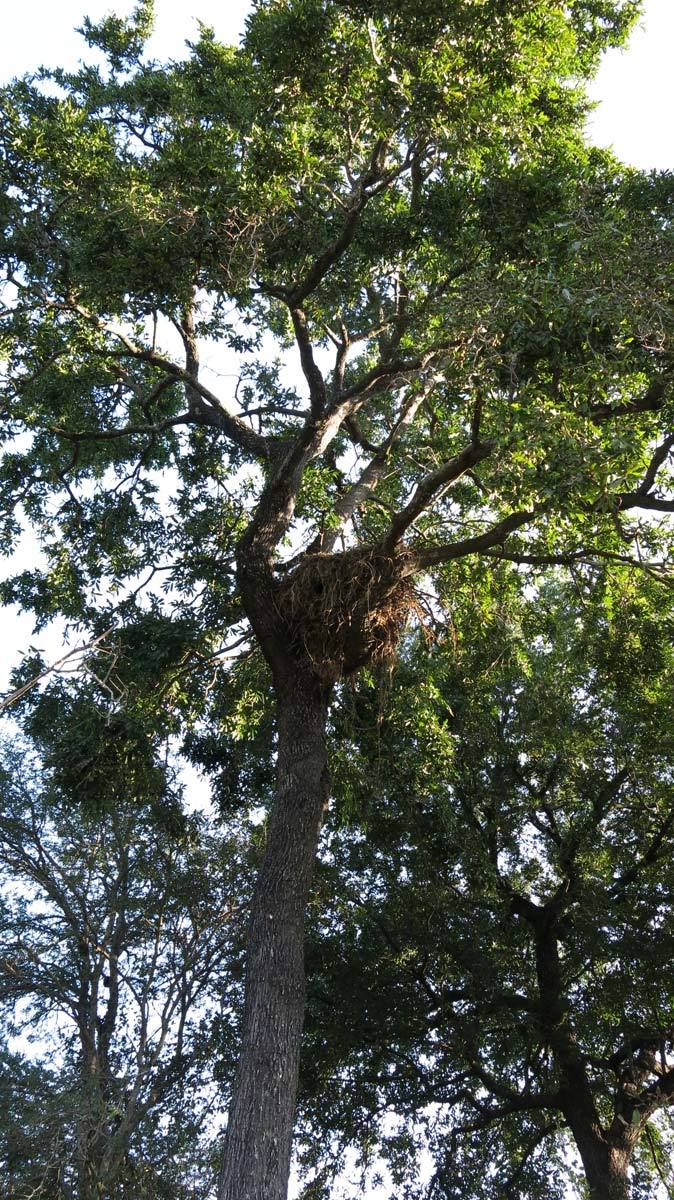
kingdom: Plantae
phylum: Tracheophyta
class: Magnoliopsida
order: Ericales
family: Ebenaceae
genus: Diospyros
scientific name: Diospyros mespiliformis
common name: Ebony diospyros
